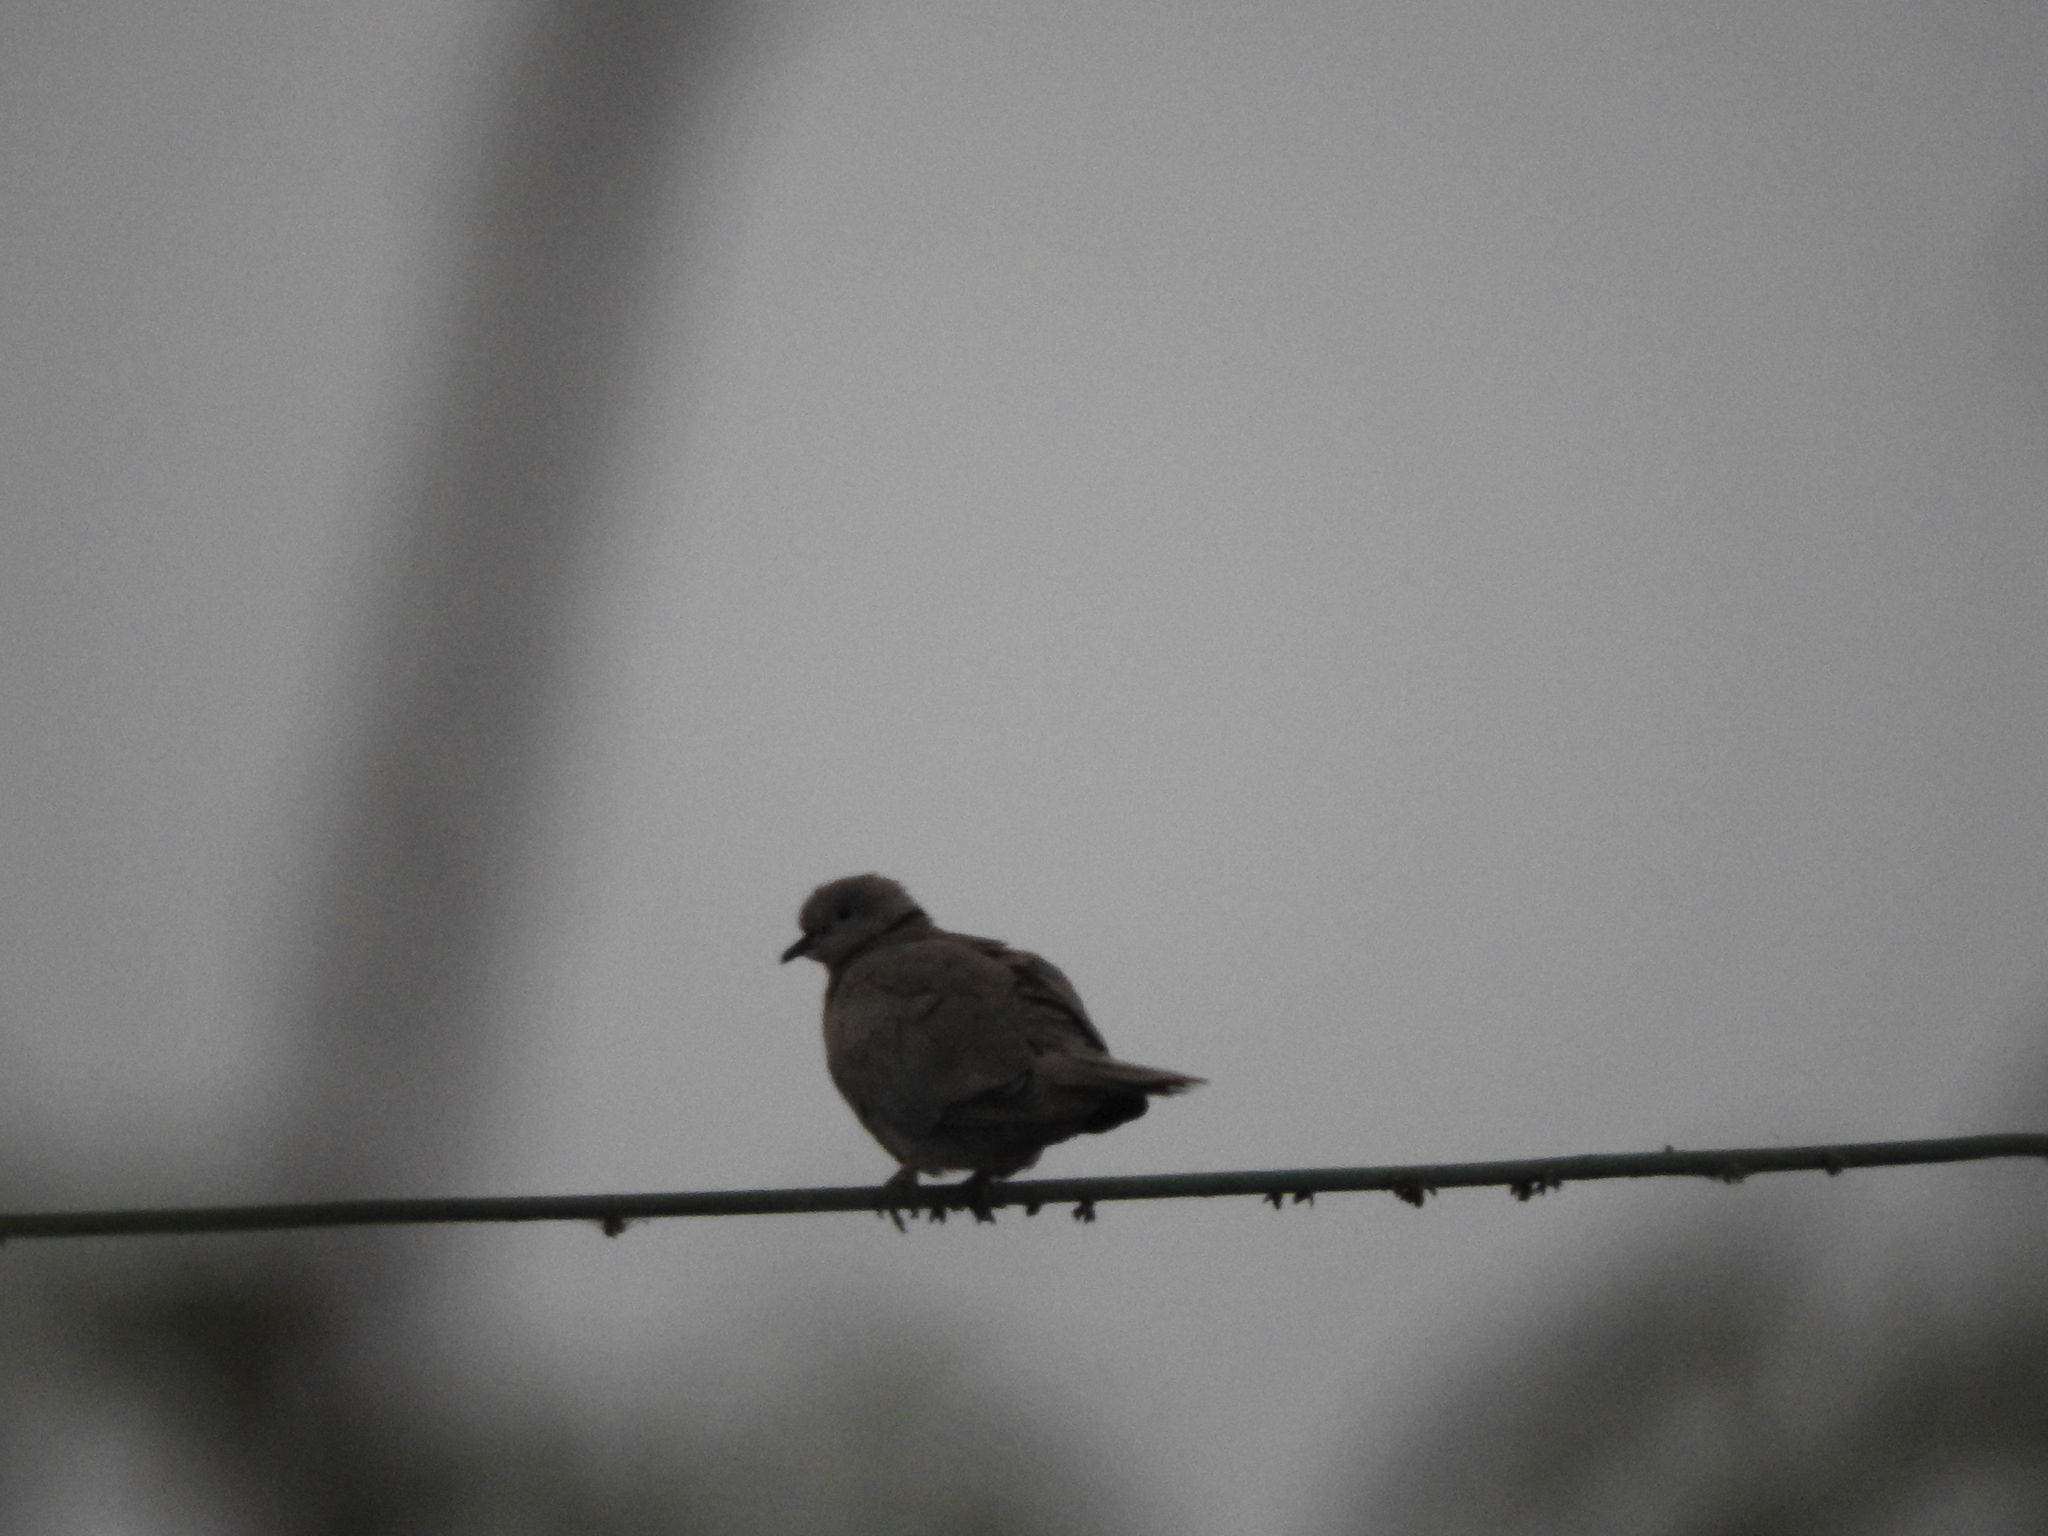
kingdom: Animalia
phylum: Chordata
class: Aves
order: Columbiformes
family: Columbidae
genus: Streptopelia
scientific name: Streptopelia decaocto
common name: Eurasian collared dove
